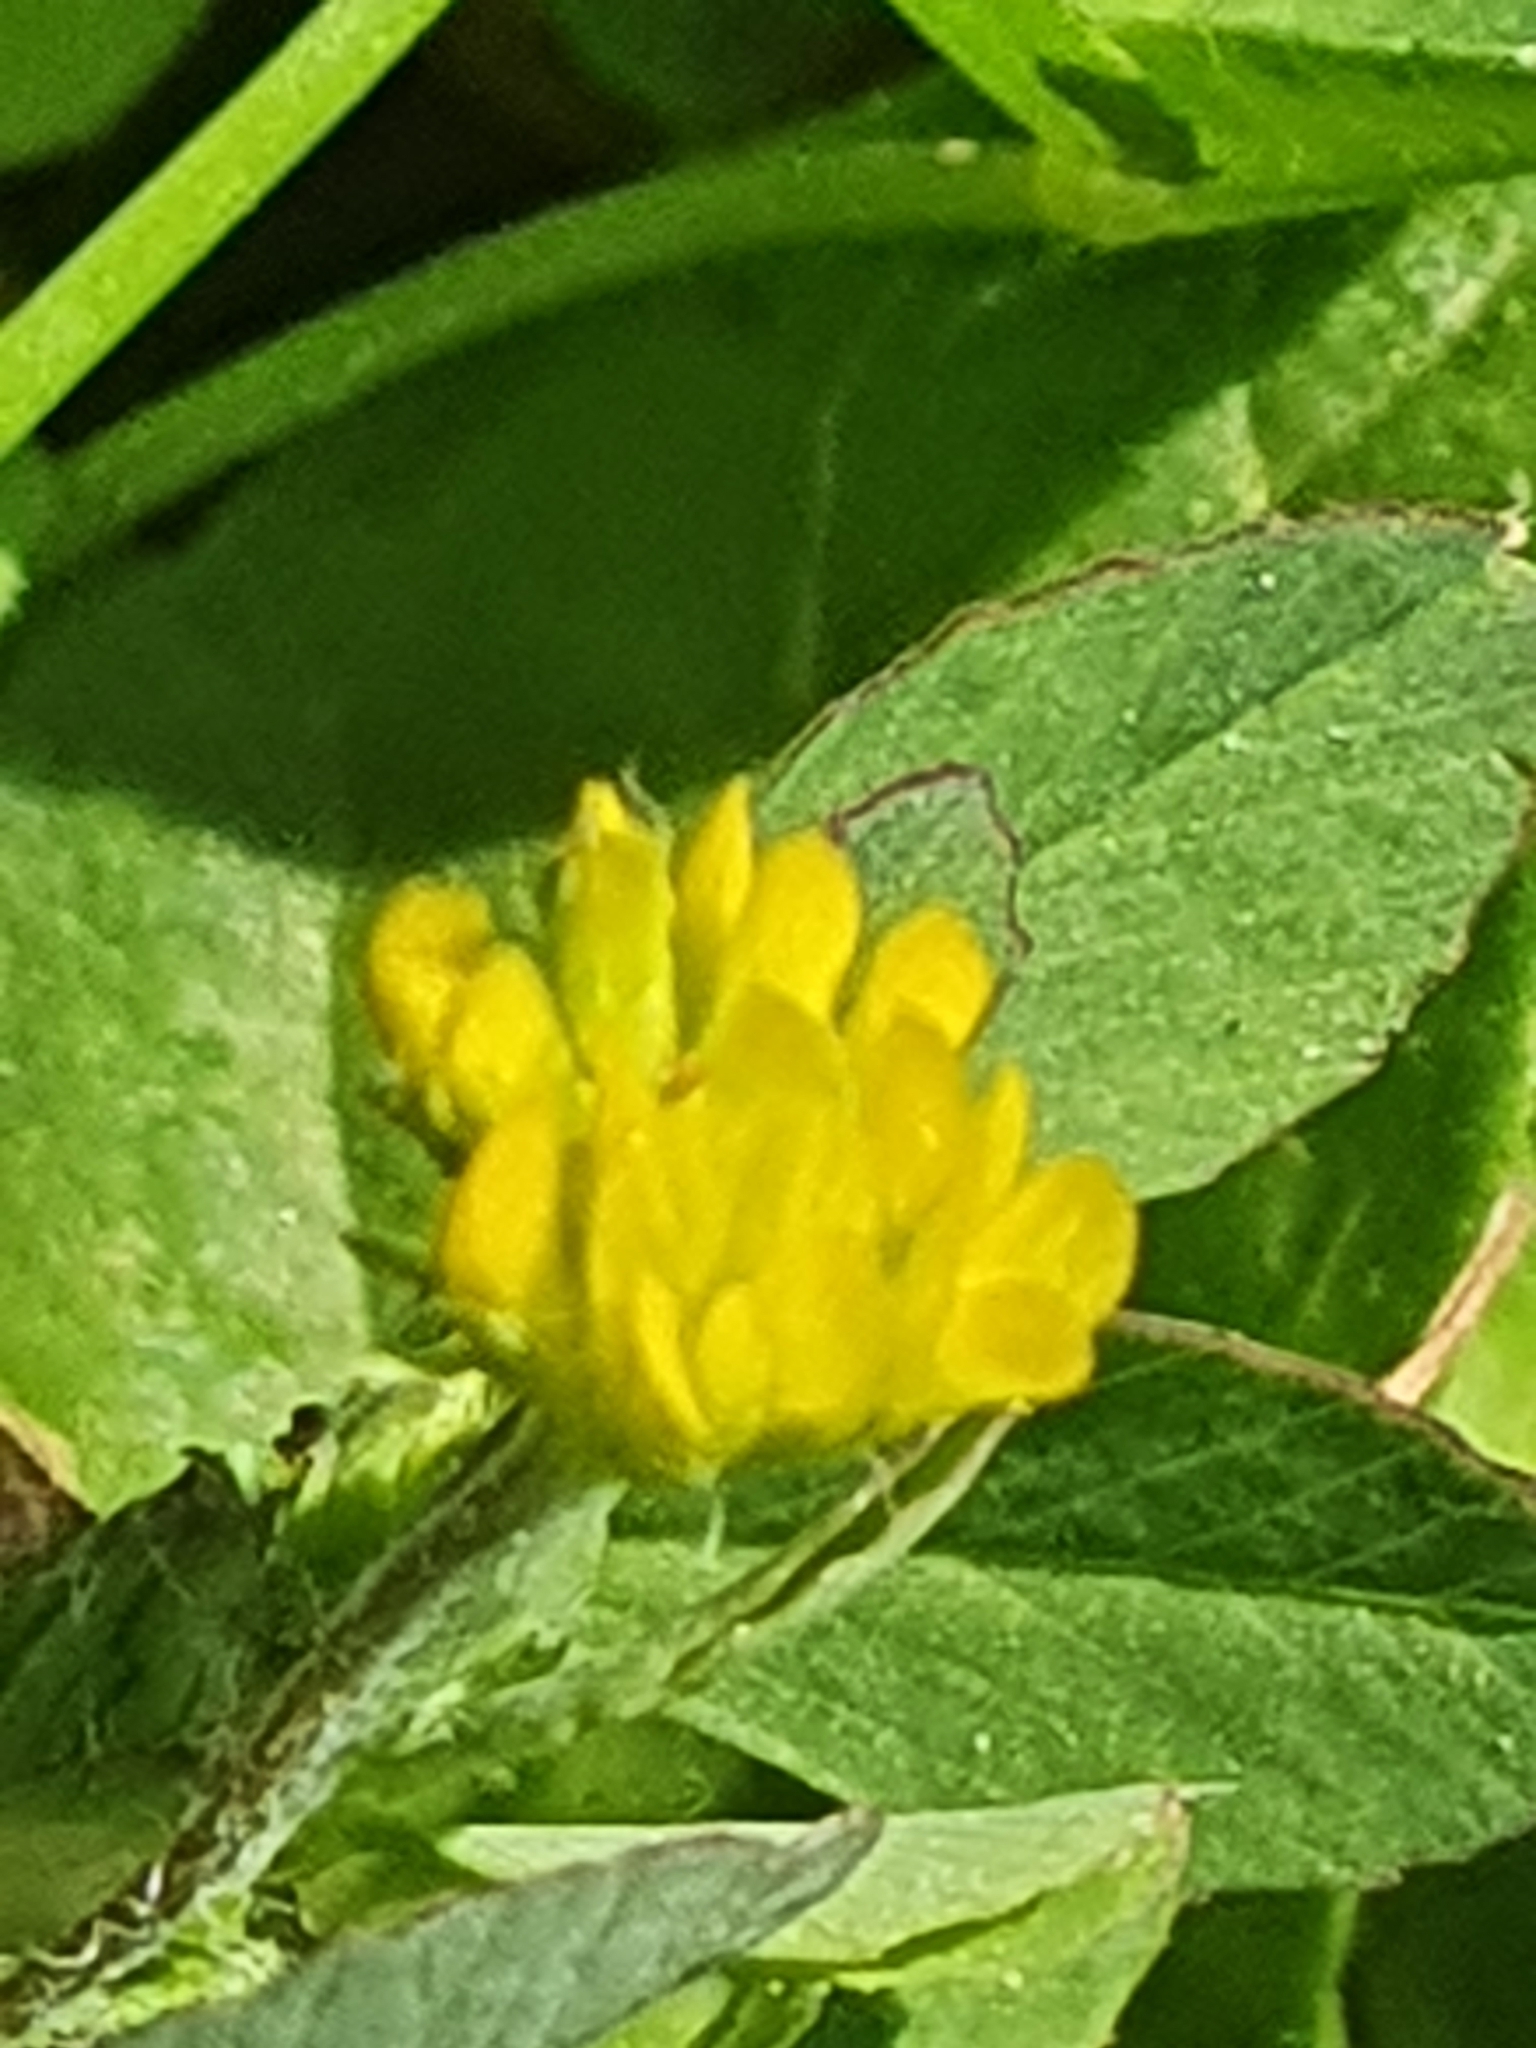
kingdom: Plantae
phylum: Tracheophyta
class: Magnoliopsida
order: Fabales
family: Fabaceae
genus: Trifolium
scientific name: Trifolium dubium
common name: Suckling clover
